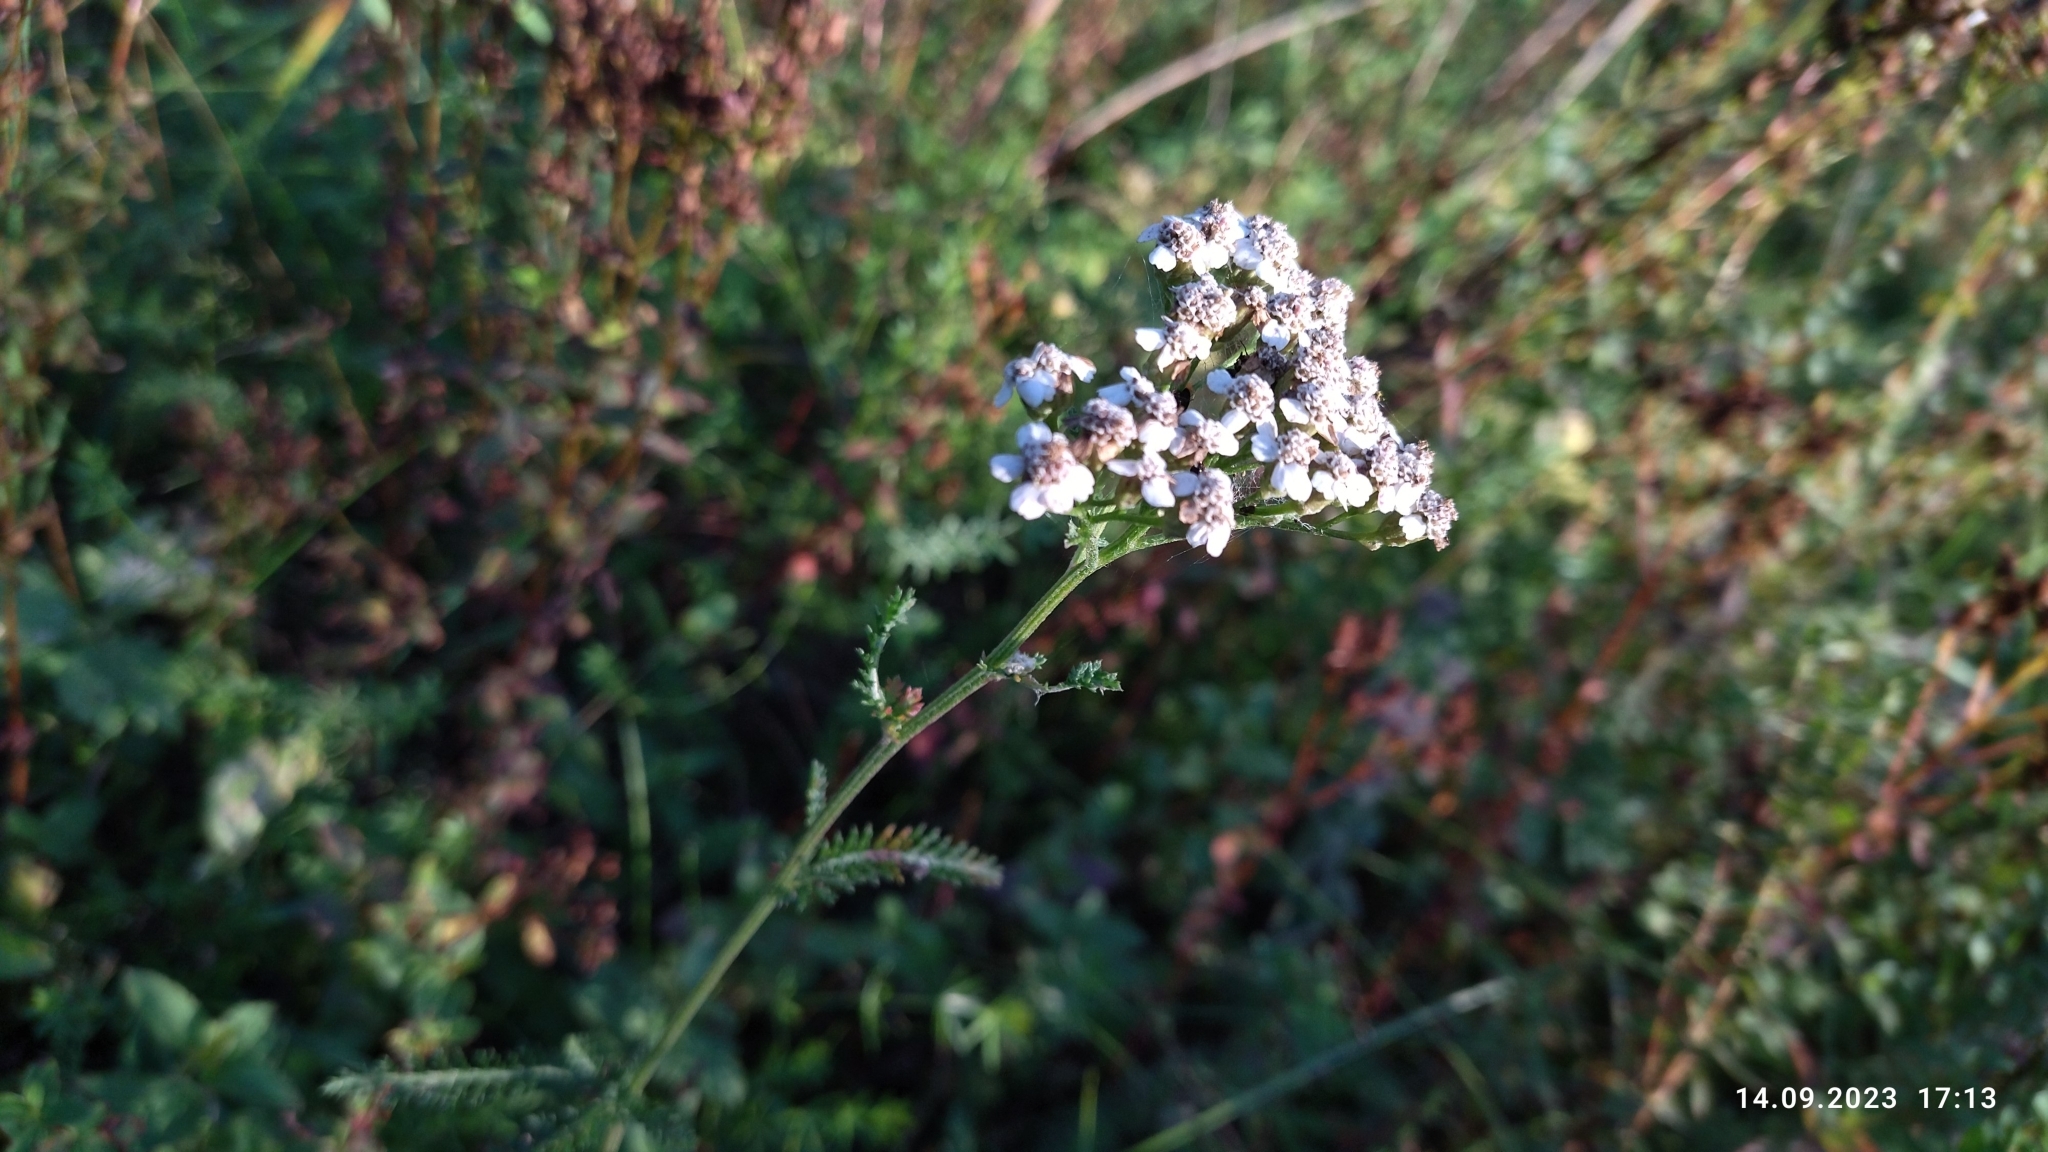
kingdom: Plantae
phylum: Tracheophyta
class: Magnoliopsida
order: Asterales
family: Asteraceae
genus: Achillea
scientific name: Achillea millefolium
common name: Yarrow
